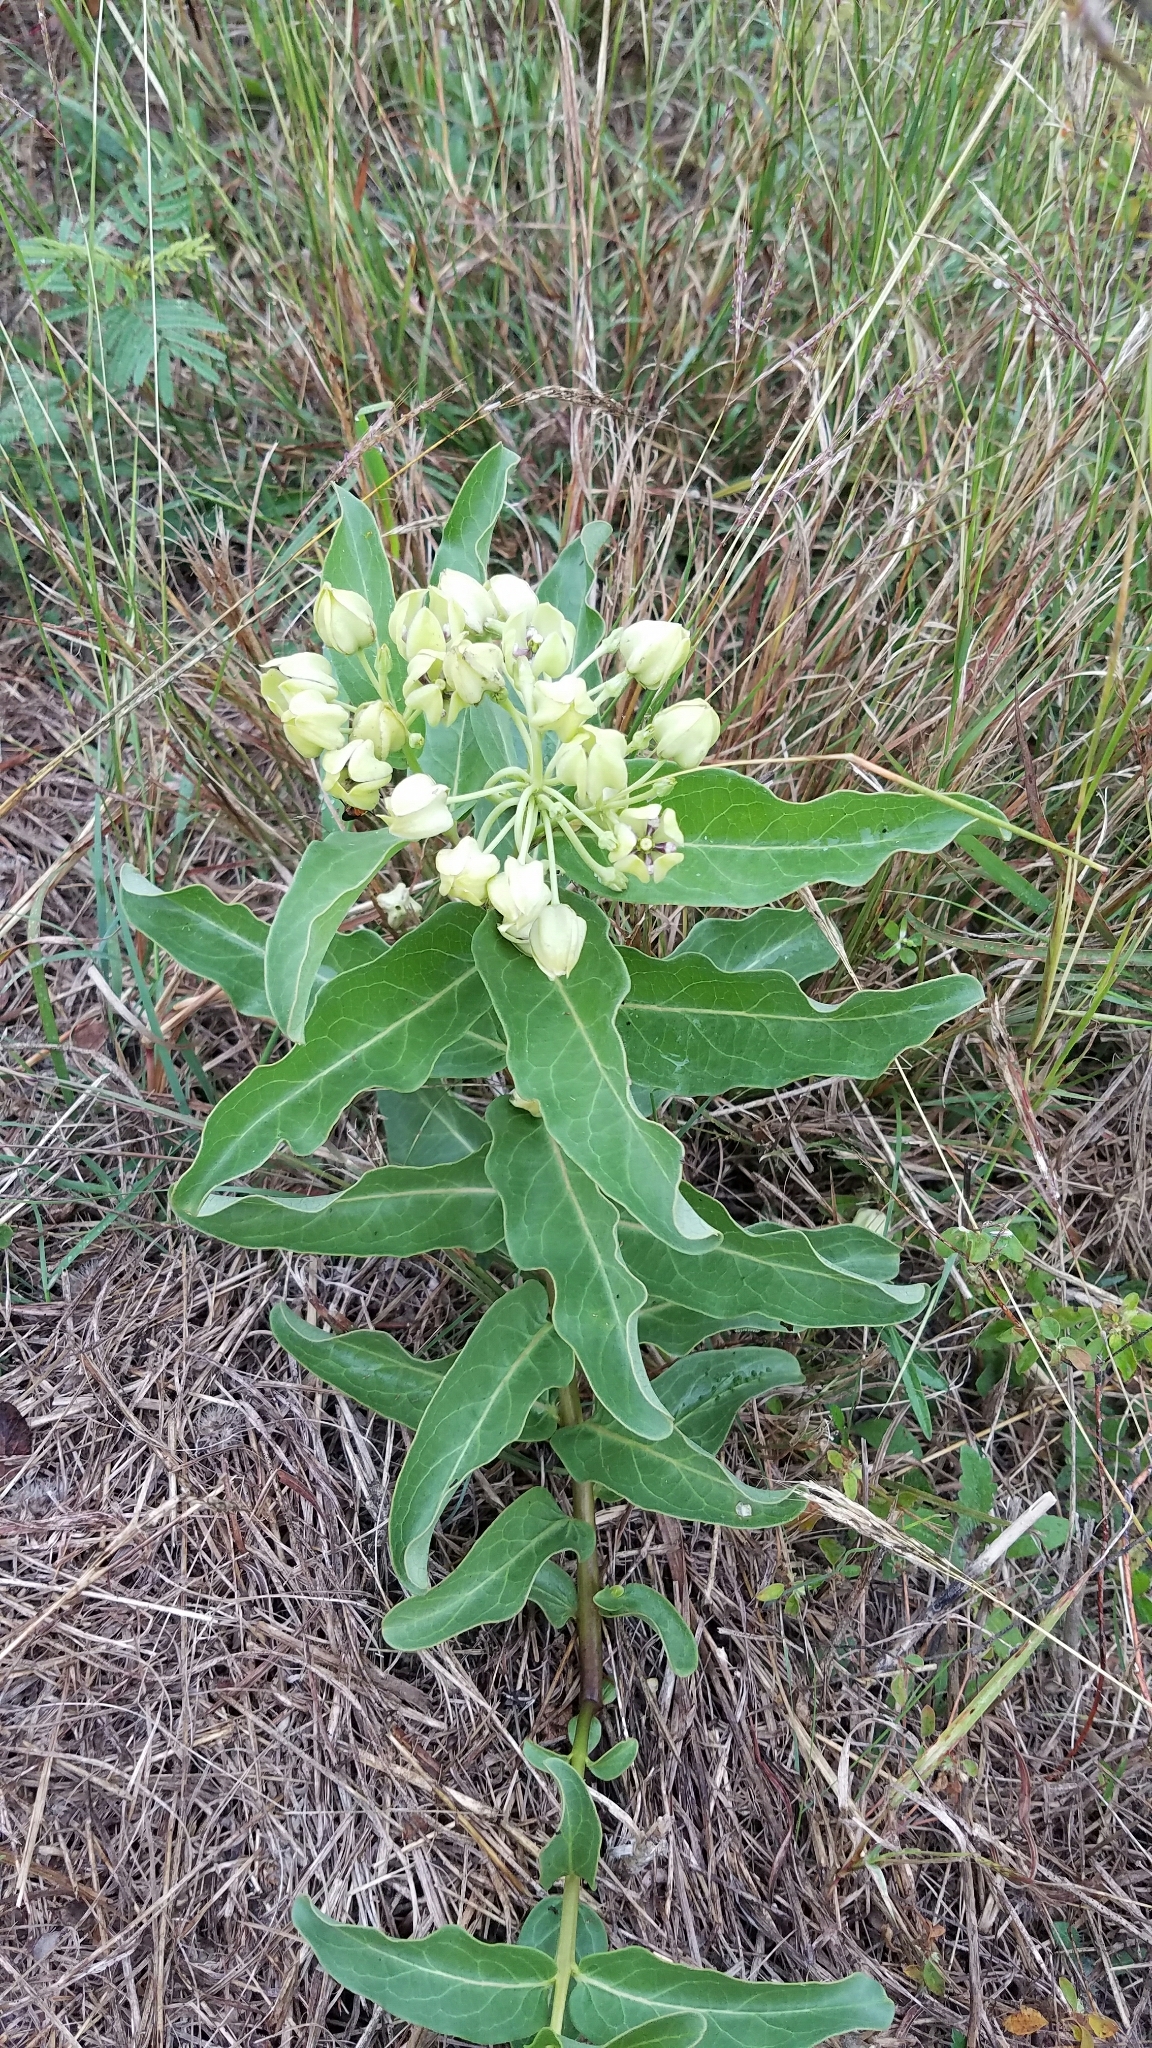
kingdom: Plantae
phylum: Tracheophyta
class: Magnoliopsida
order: Gentianales
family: Apocynaceae
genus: Asclepias
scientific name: Asclepias viridis
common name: Antelope-horns
